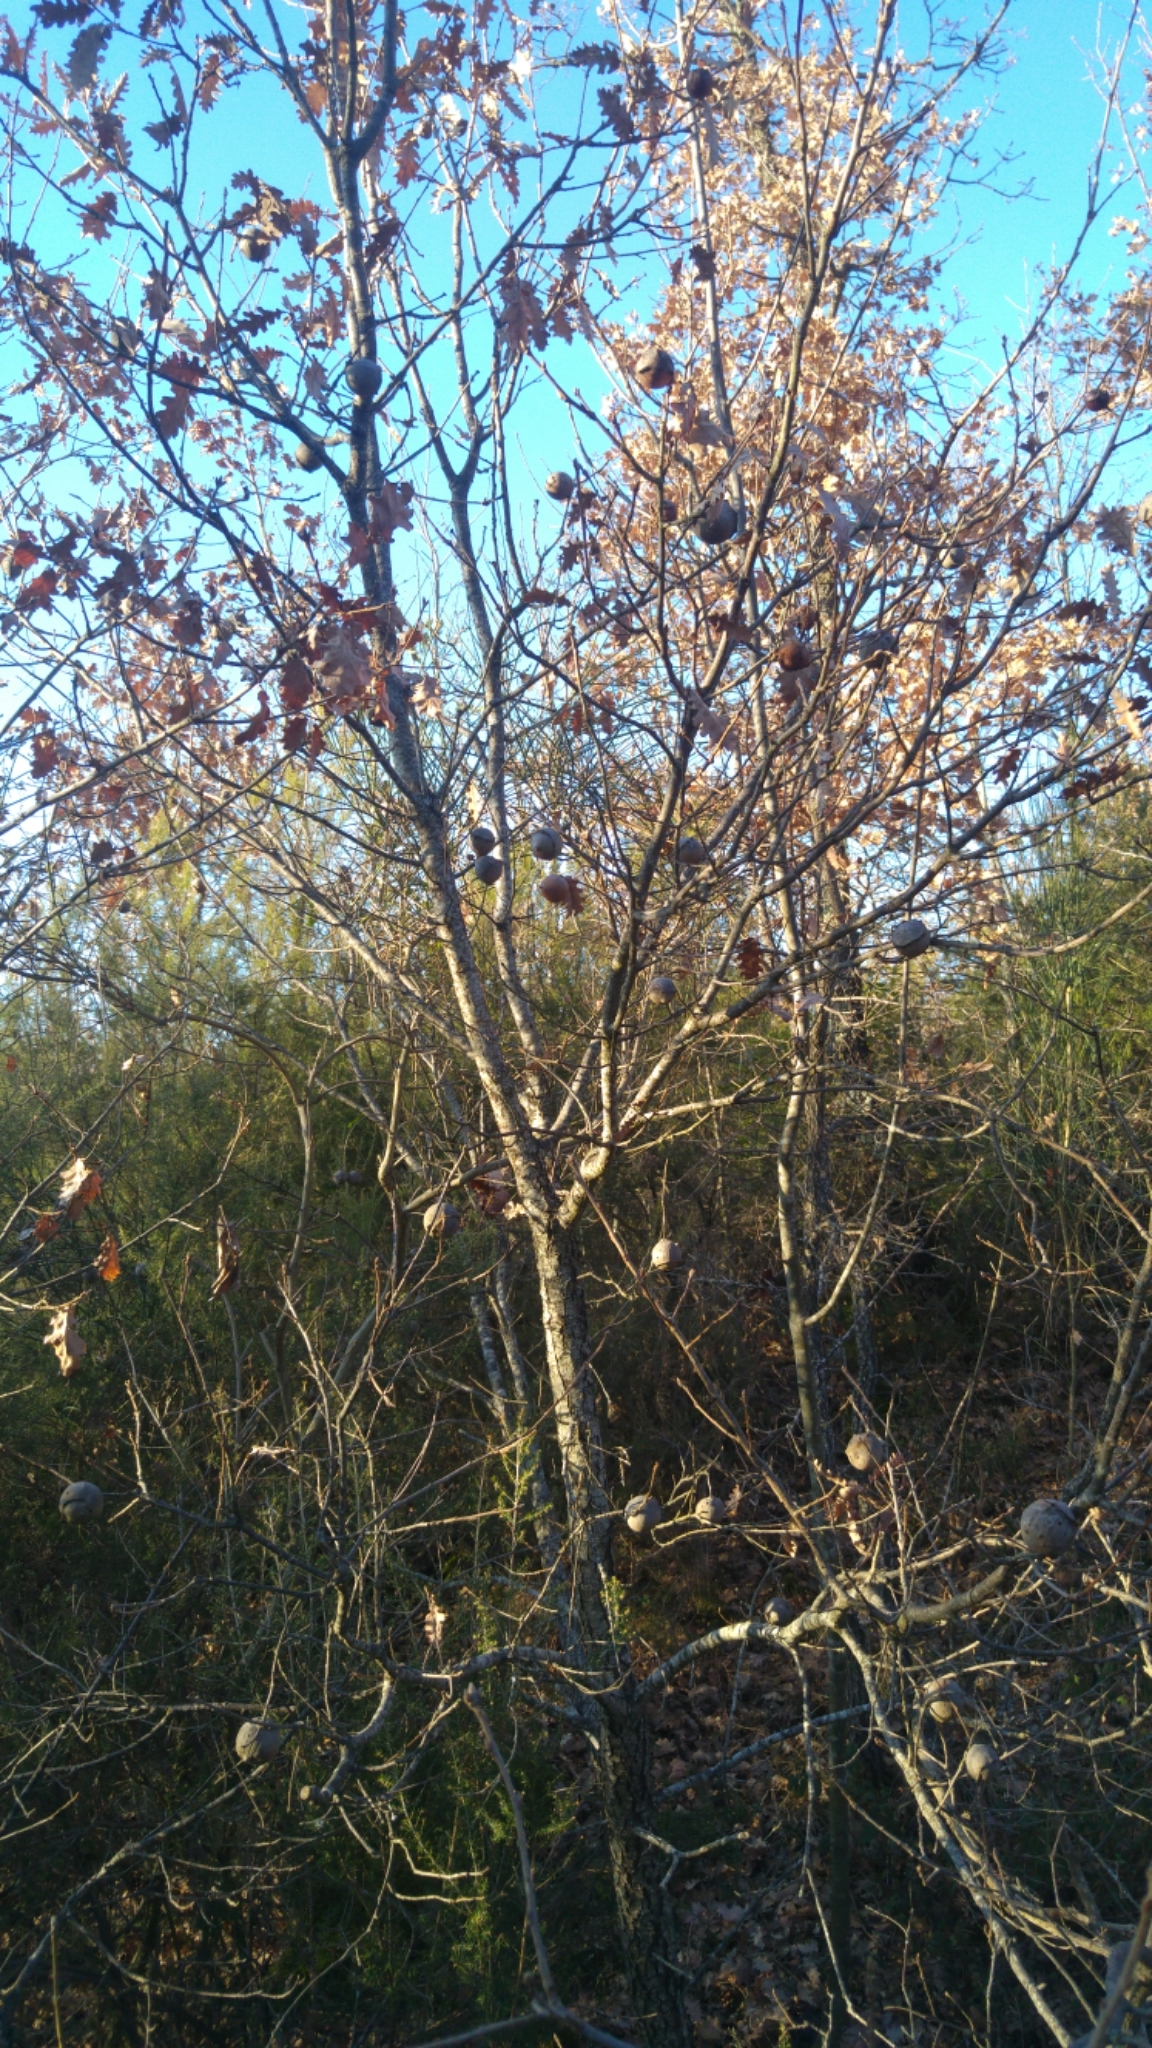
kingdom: Animalia
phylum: Arthropoda
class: Insecta
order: Hymenoptera
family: Cynipidae
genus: Andricus
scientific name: Andricus quercustozae
